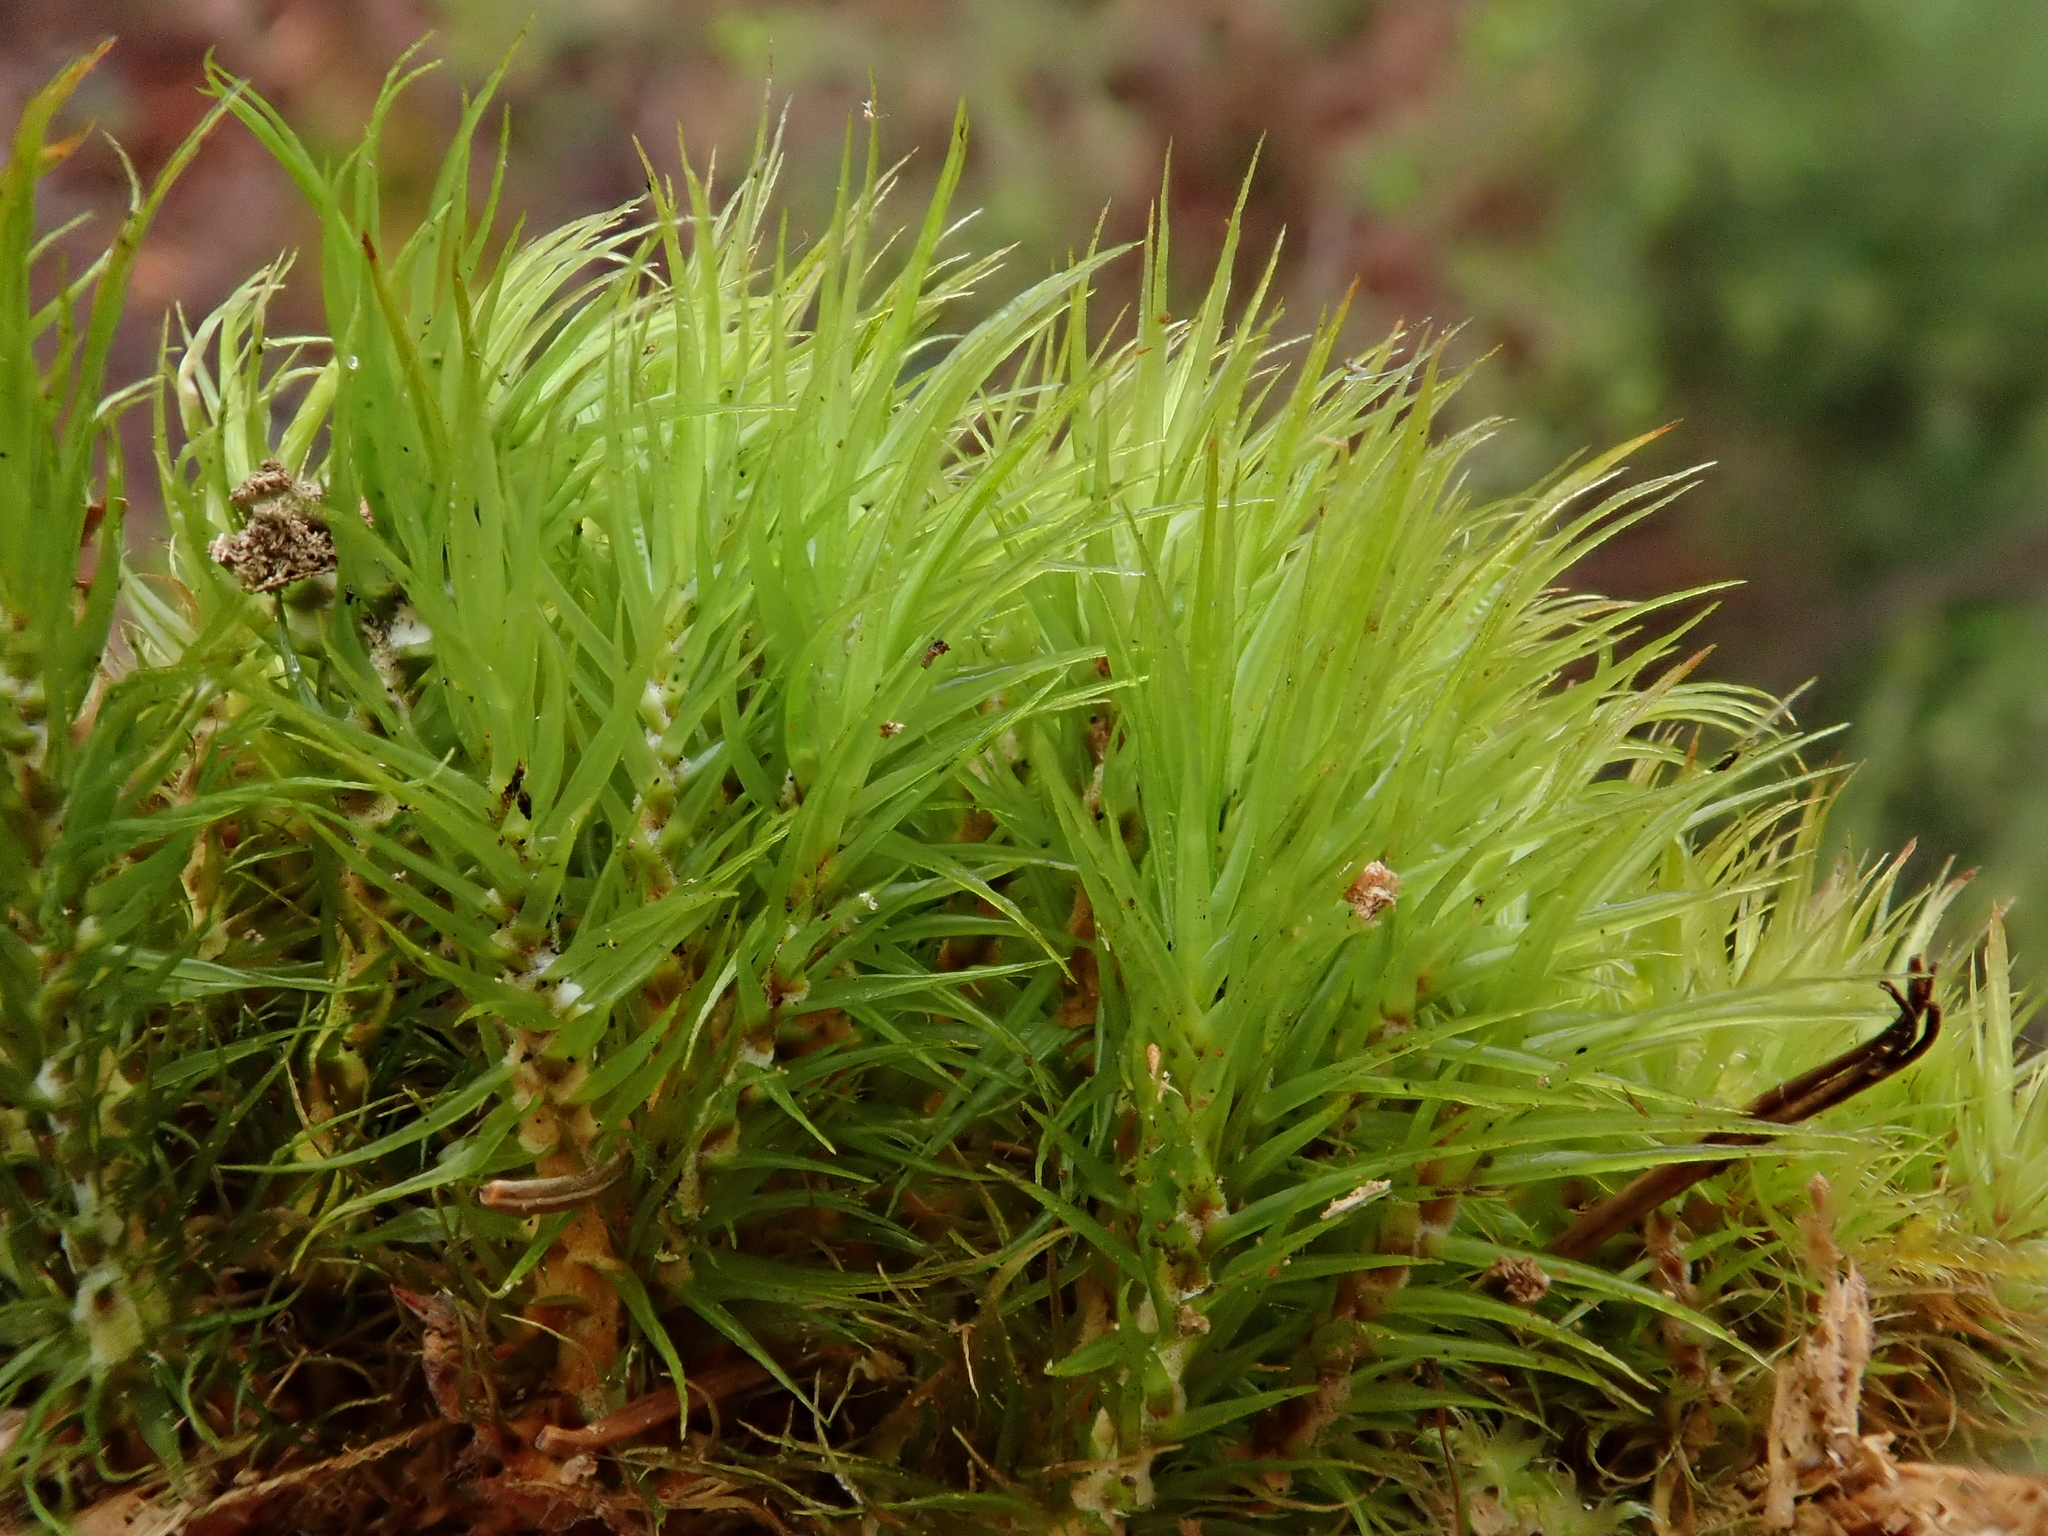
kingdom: Plantae
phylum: Bryophyta
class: Bryopsida
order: Dicranales
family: Dicranaceae
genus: Dicranum
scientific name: Dicranum scoparium
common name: Broom fork-moss
